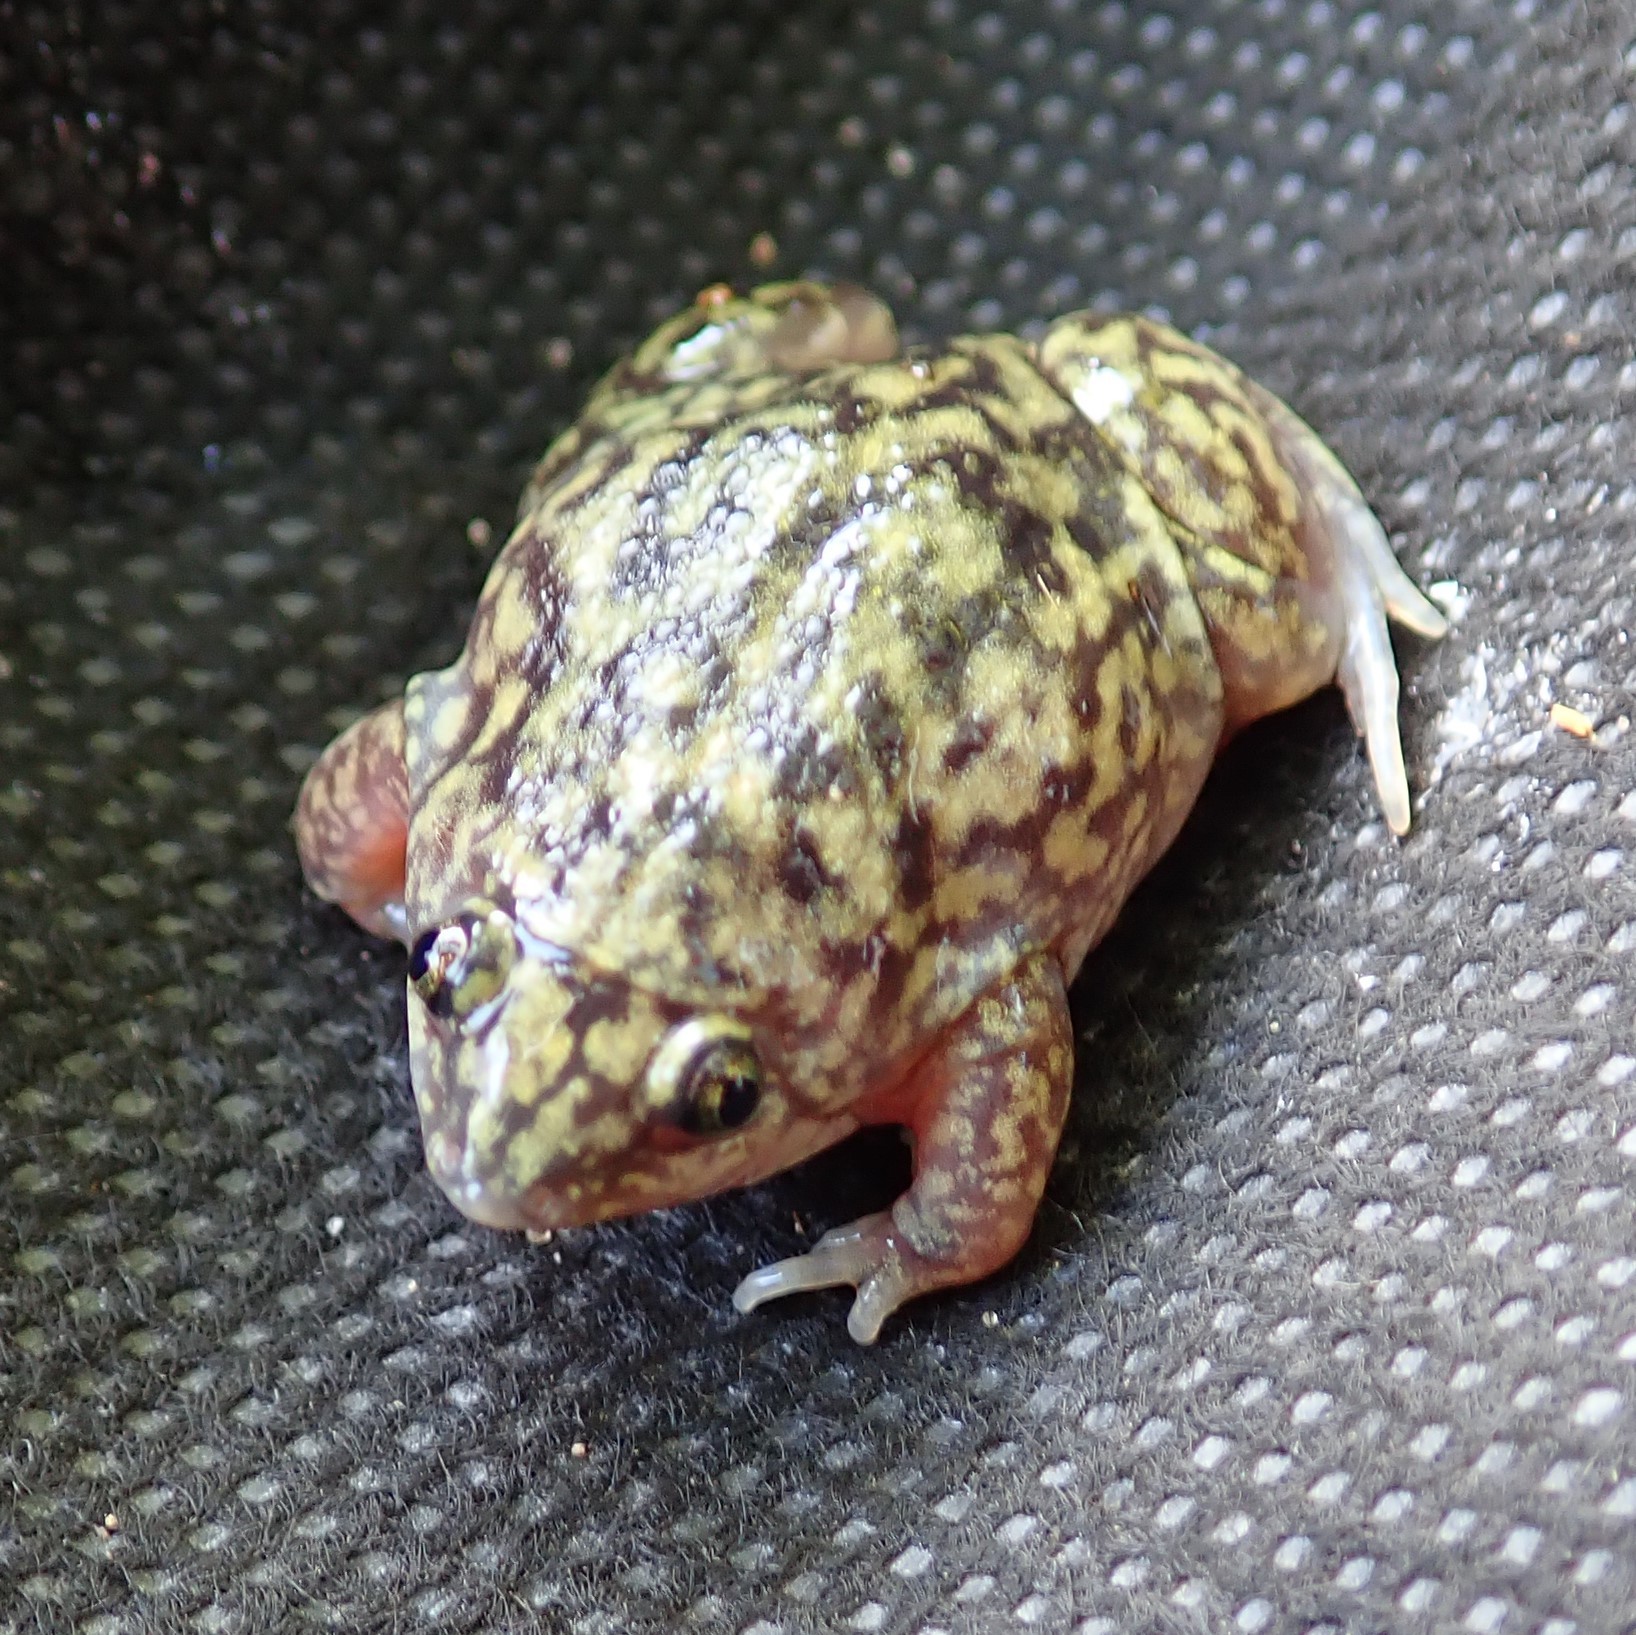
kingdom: Animalia
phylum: Chordata
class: Amphibia
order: Anura
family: Hemisotidae
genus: Hemisus
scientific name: Hemisus marmoratus
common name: Mottled shovel-nosed frog
